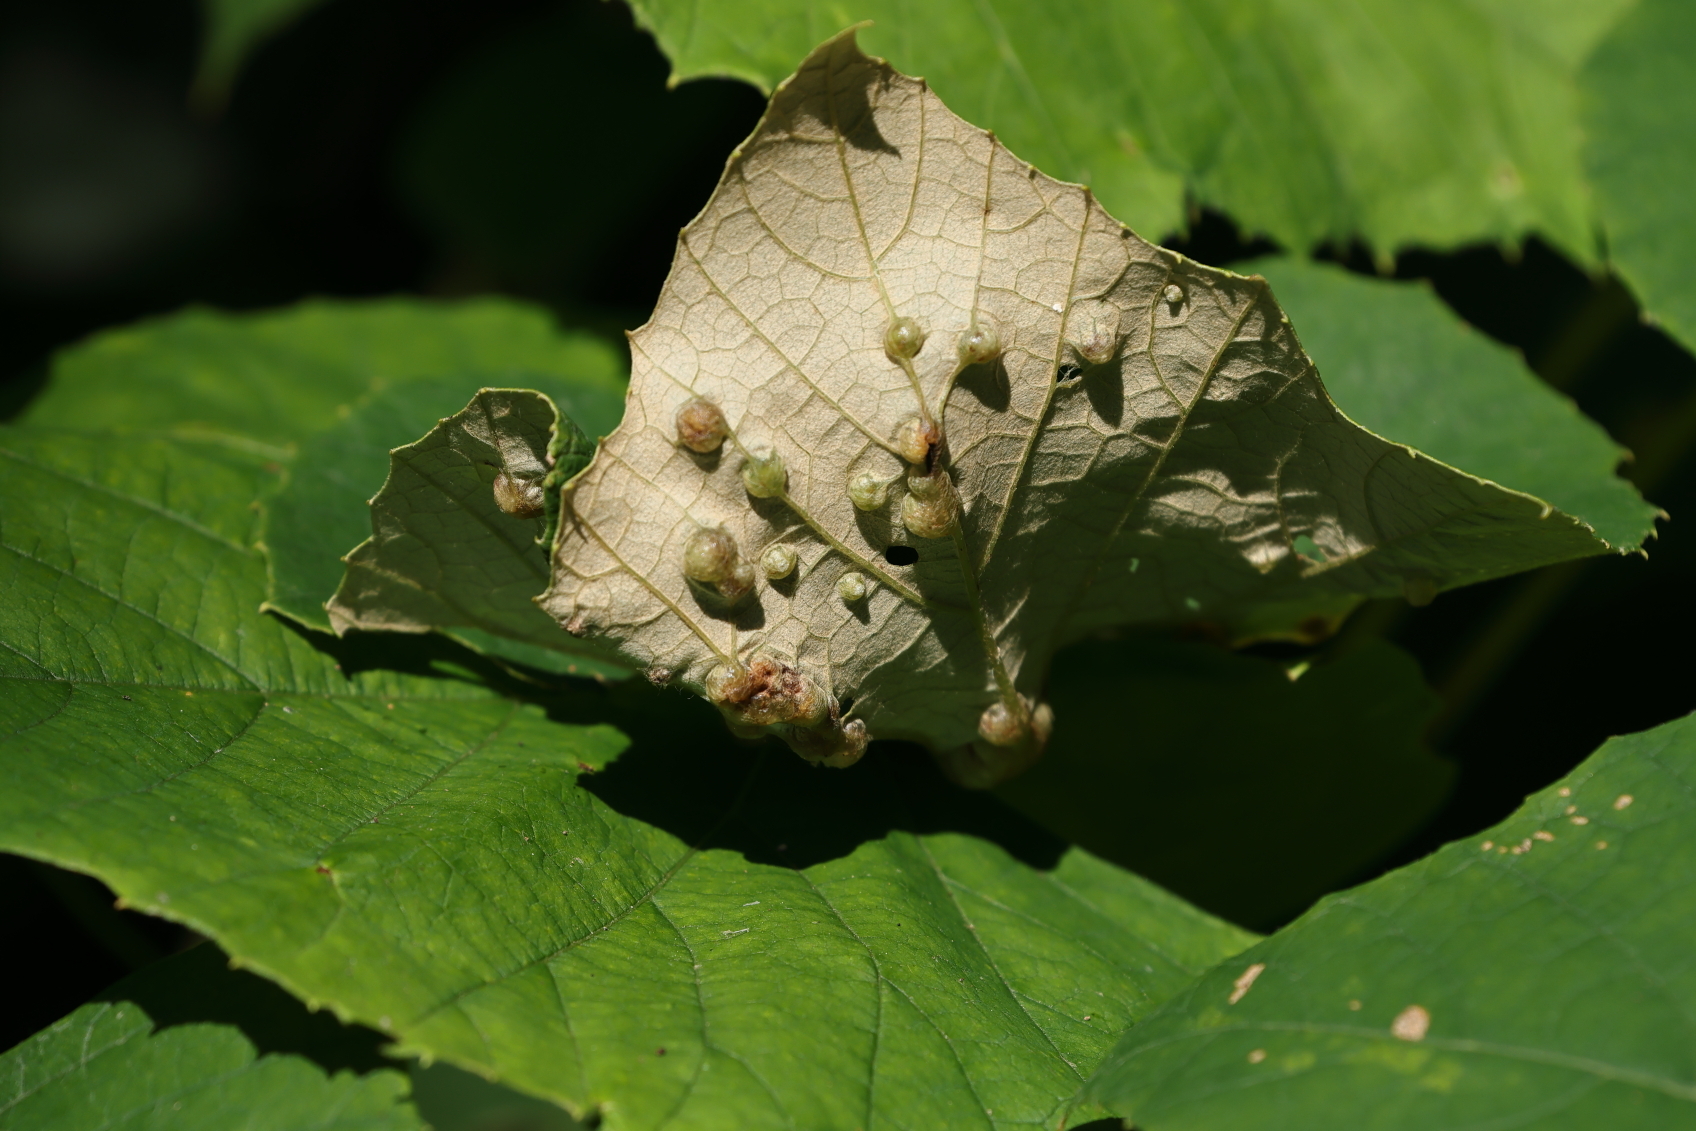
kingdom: Animalia
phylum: Arthropoda
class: Insecta
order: Diptera
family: Cecidomyiidae
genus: Vitisiella
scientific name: Vitisiella brevicauda
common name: Grape tumid gallmaker midge
